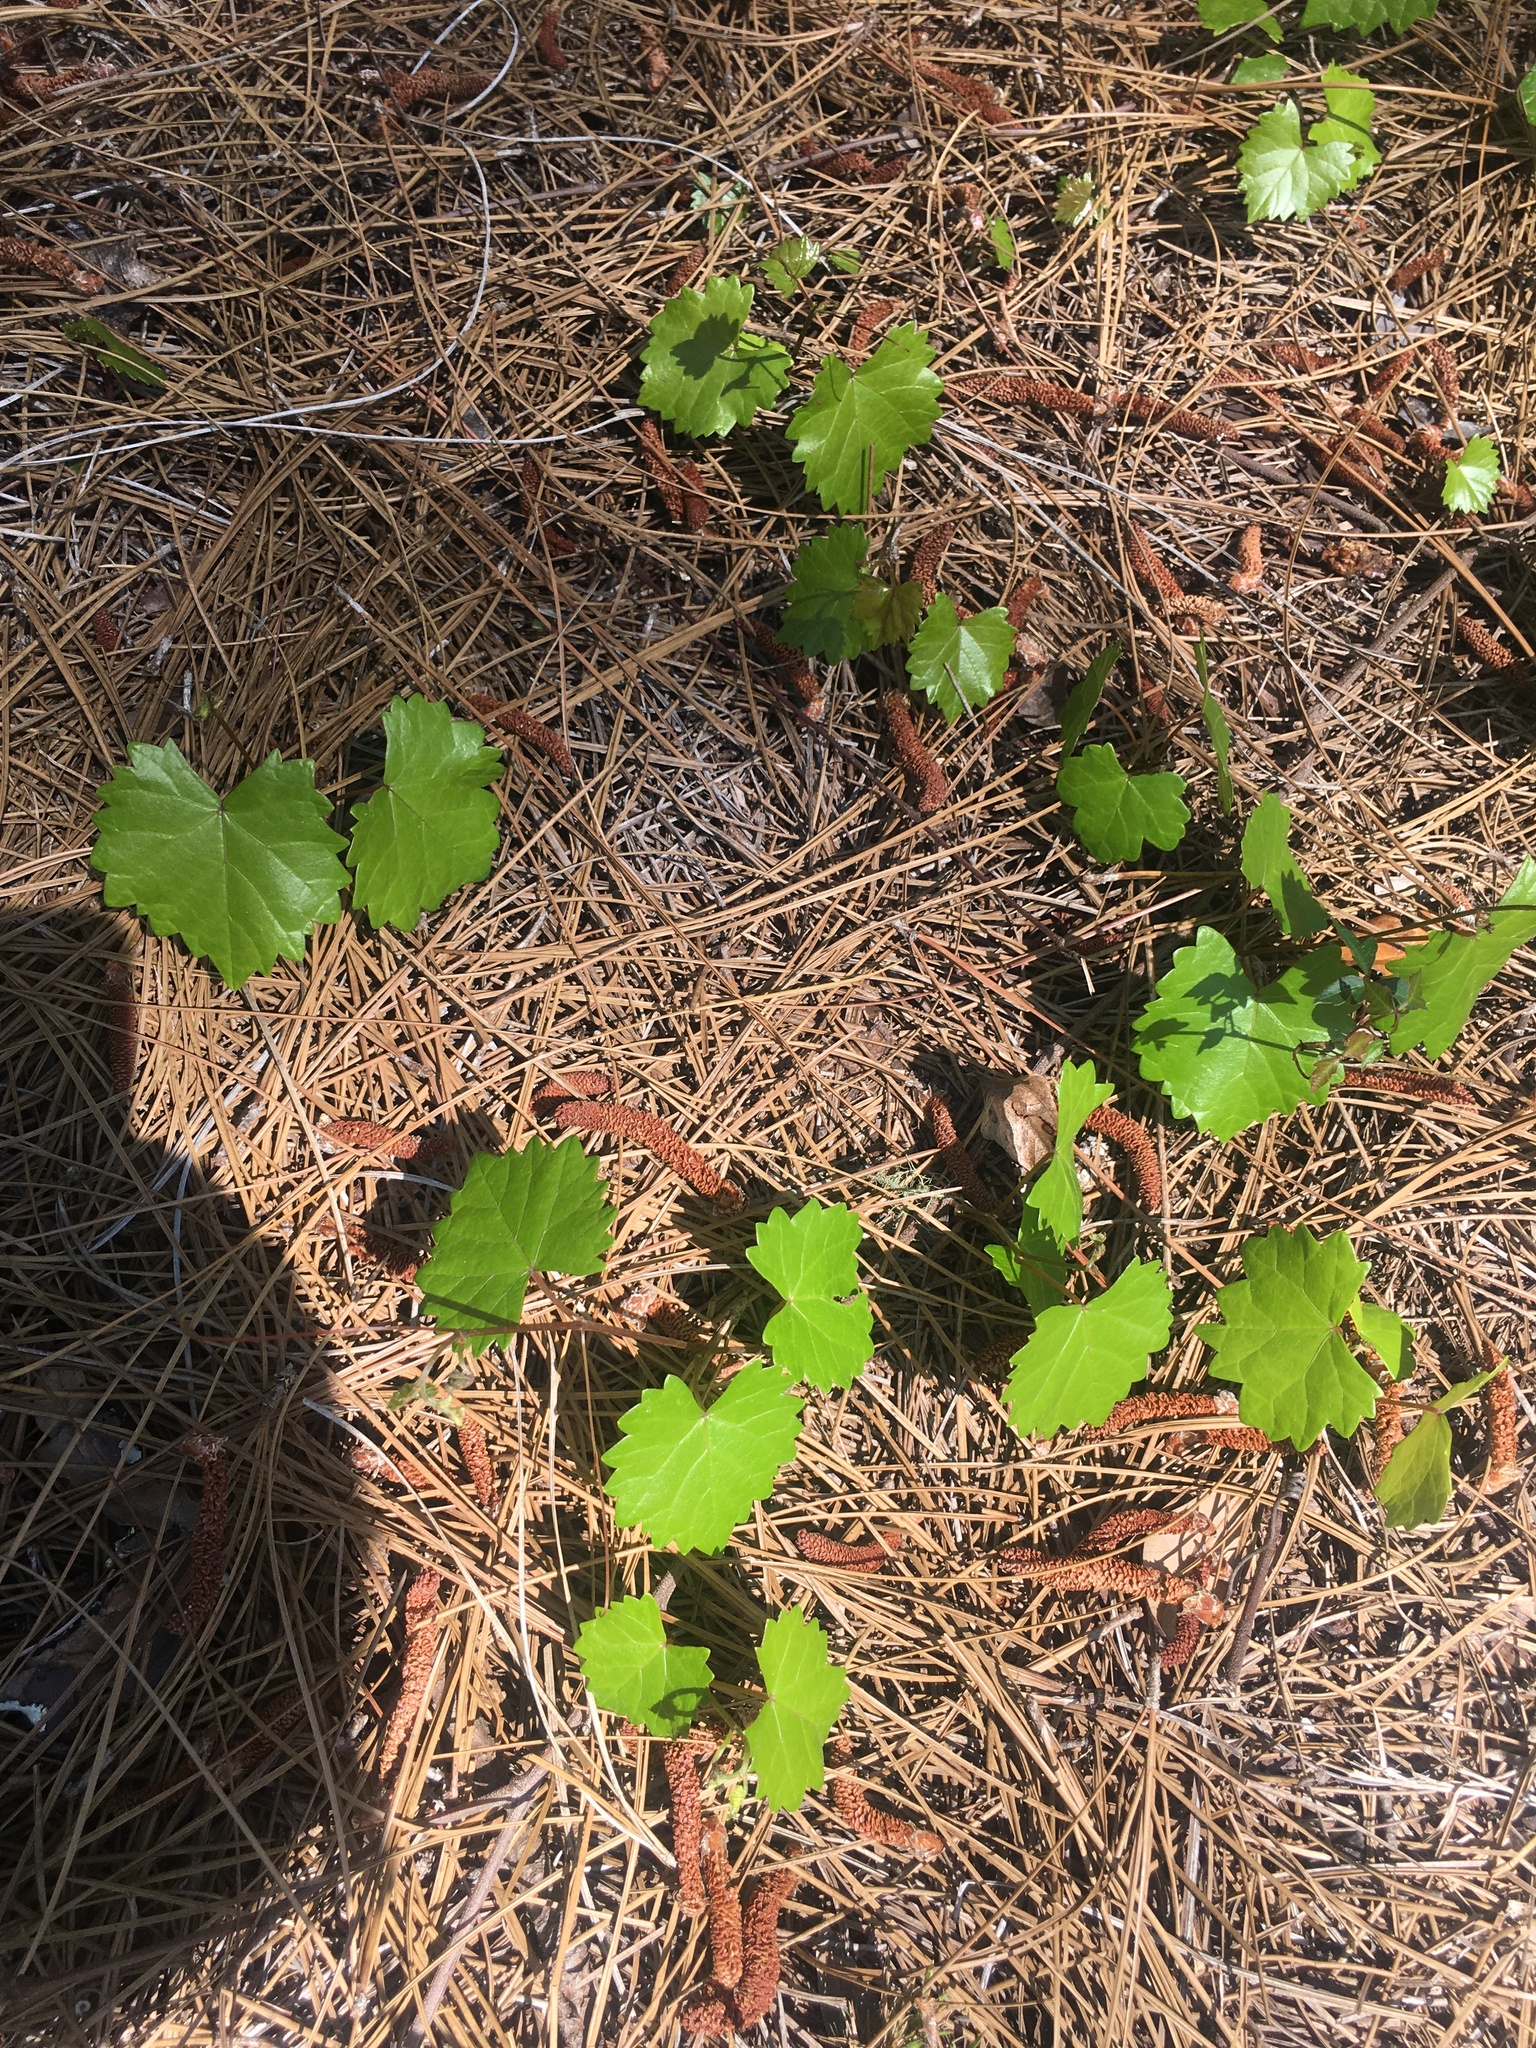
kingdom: Plantae
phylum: Tracheophyta
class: Magnoliopsida
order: Vitales
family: Vitaceae
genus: Vitis
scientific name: Vitis rotundifolia
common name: Muscadine grape
